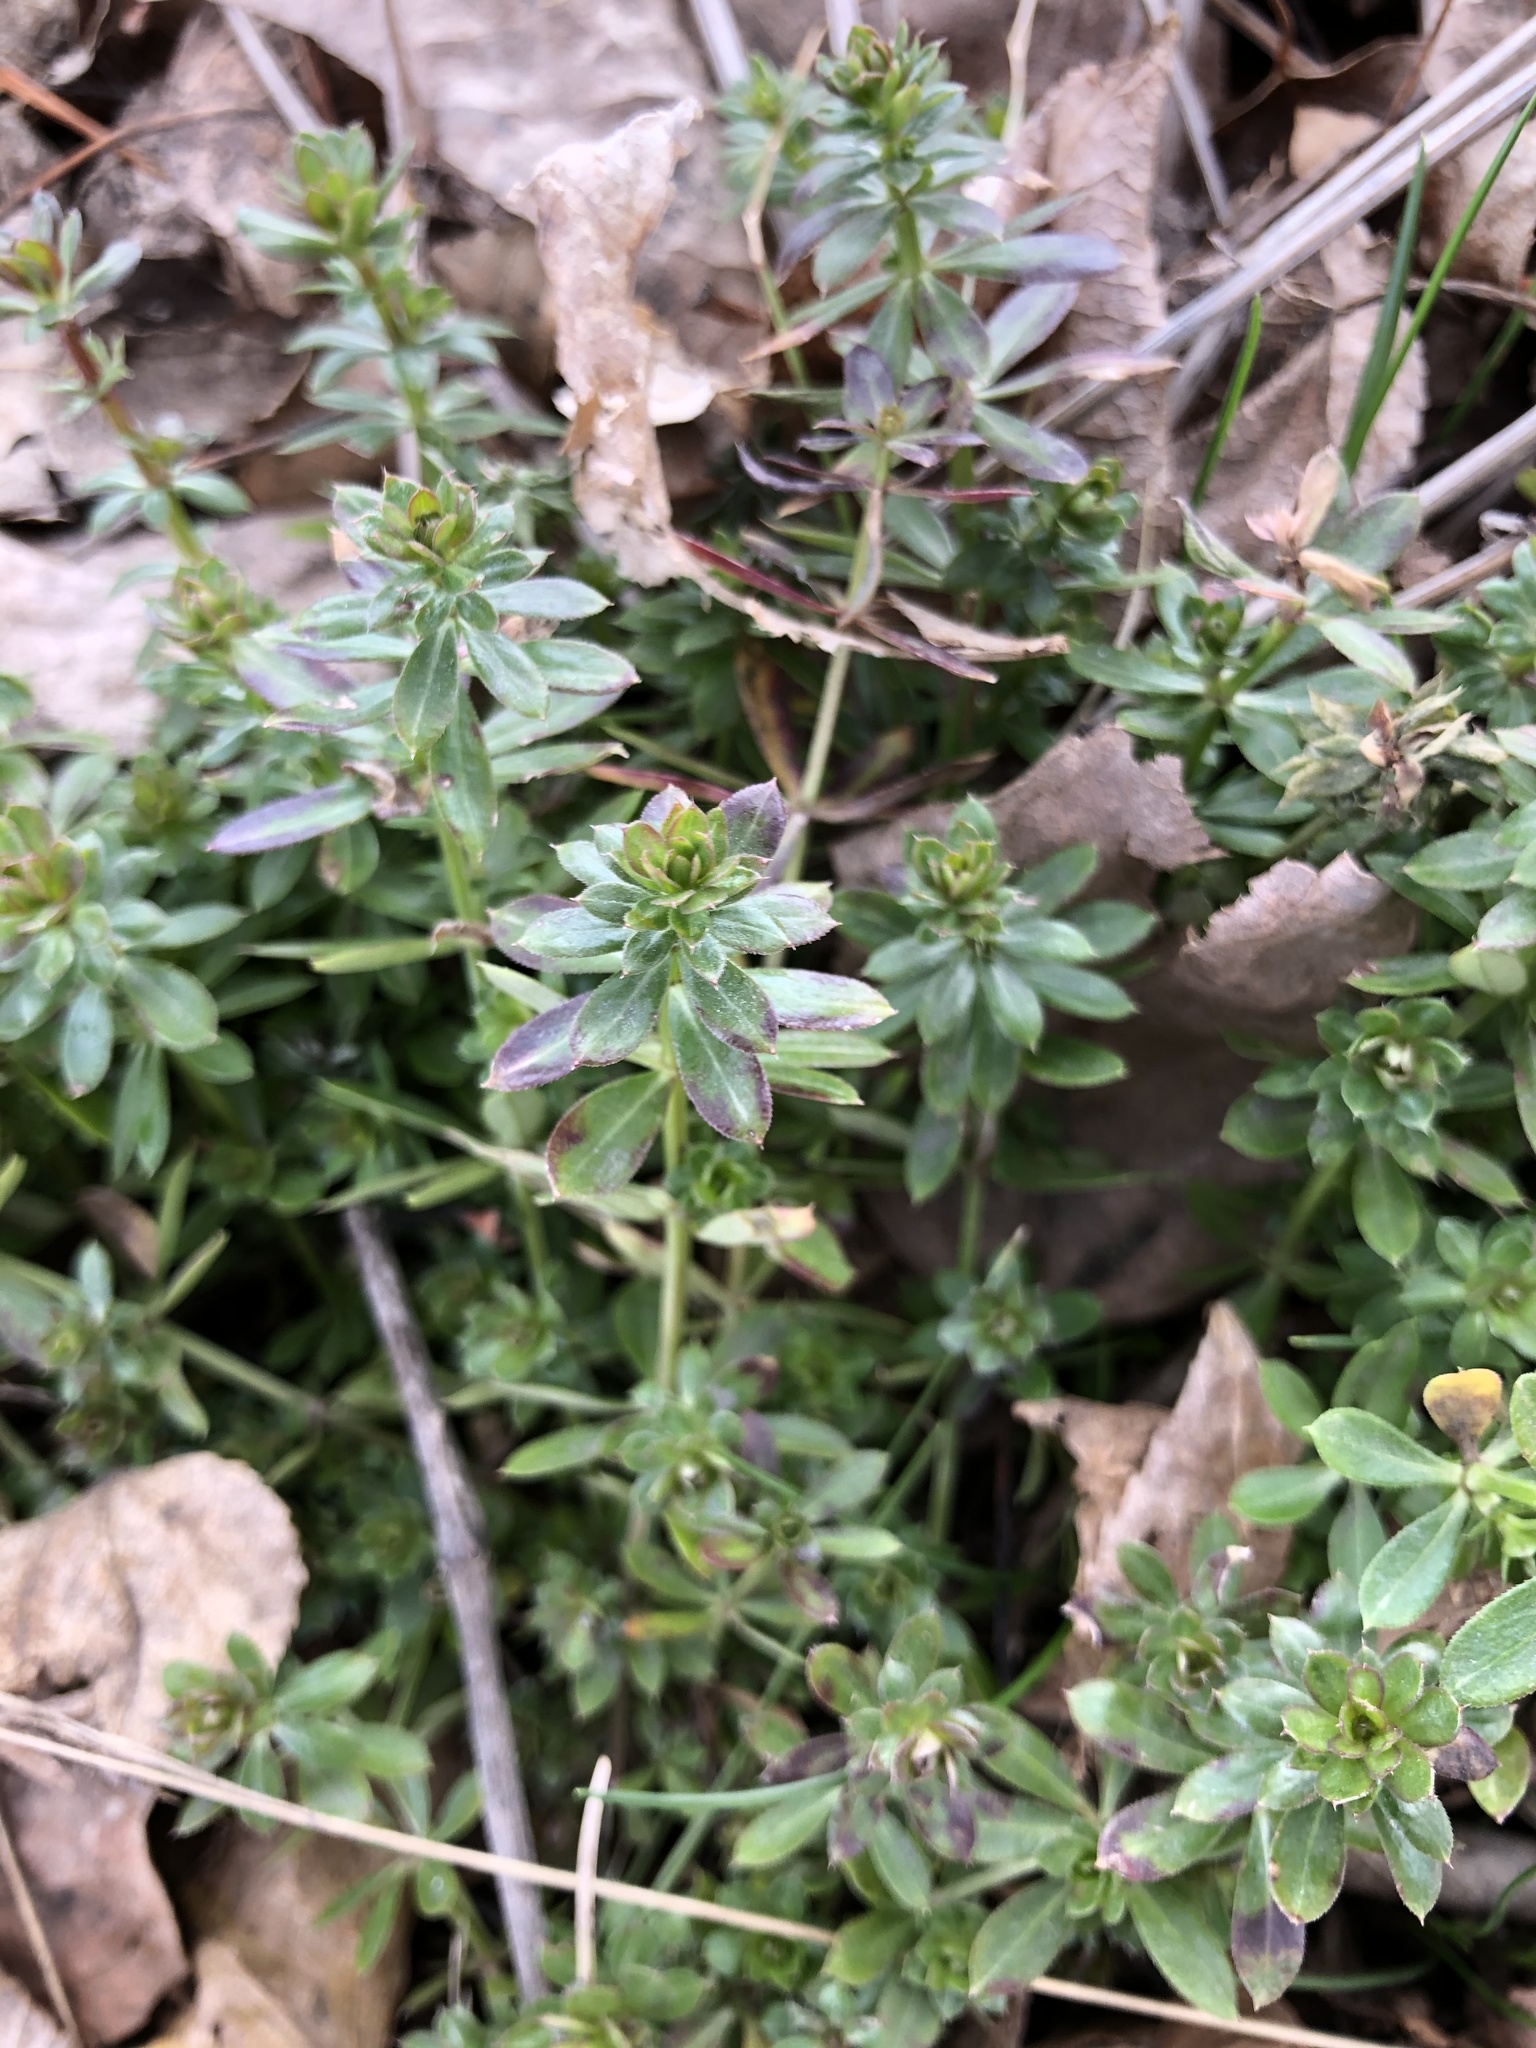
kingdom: Plantae
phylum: Tracheophyta
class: Magnoliopsida
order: Gentianales
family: Rubiaceae
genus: Galium
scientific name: Galium mollugo
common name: Hedge bedstraw
